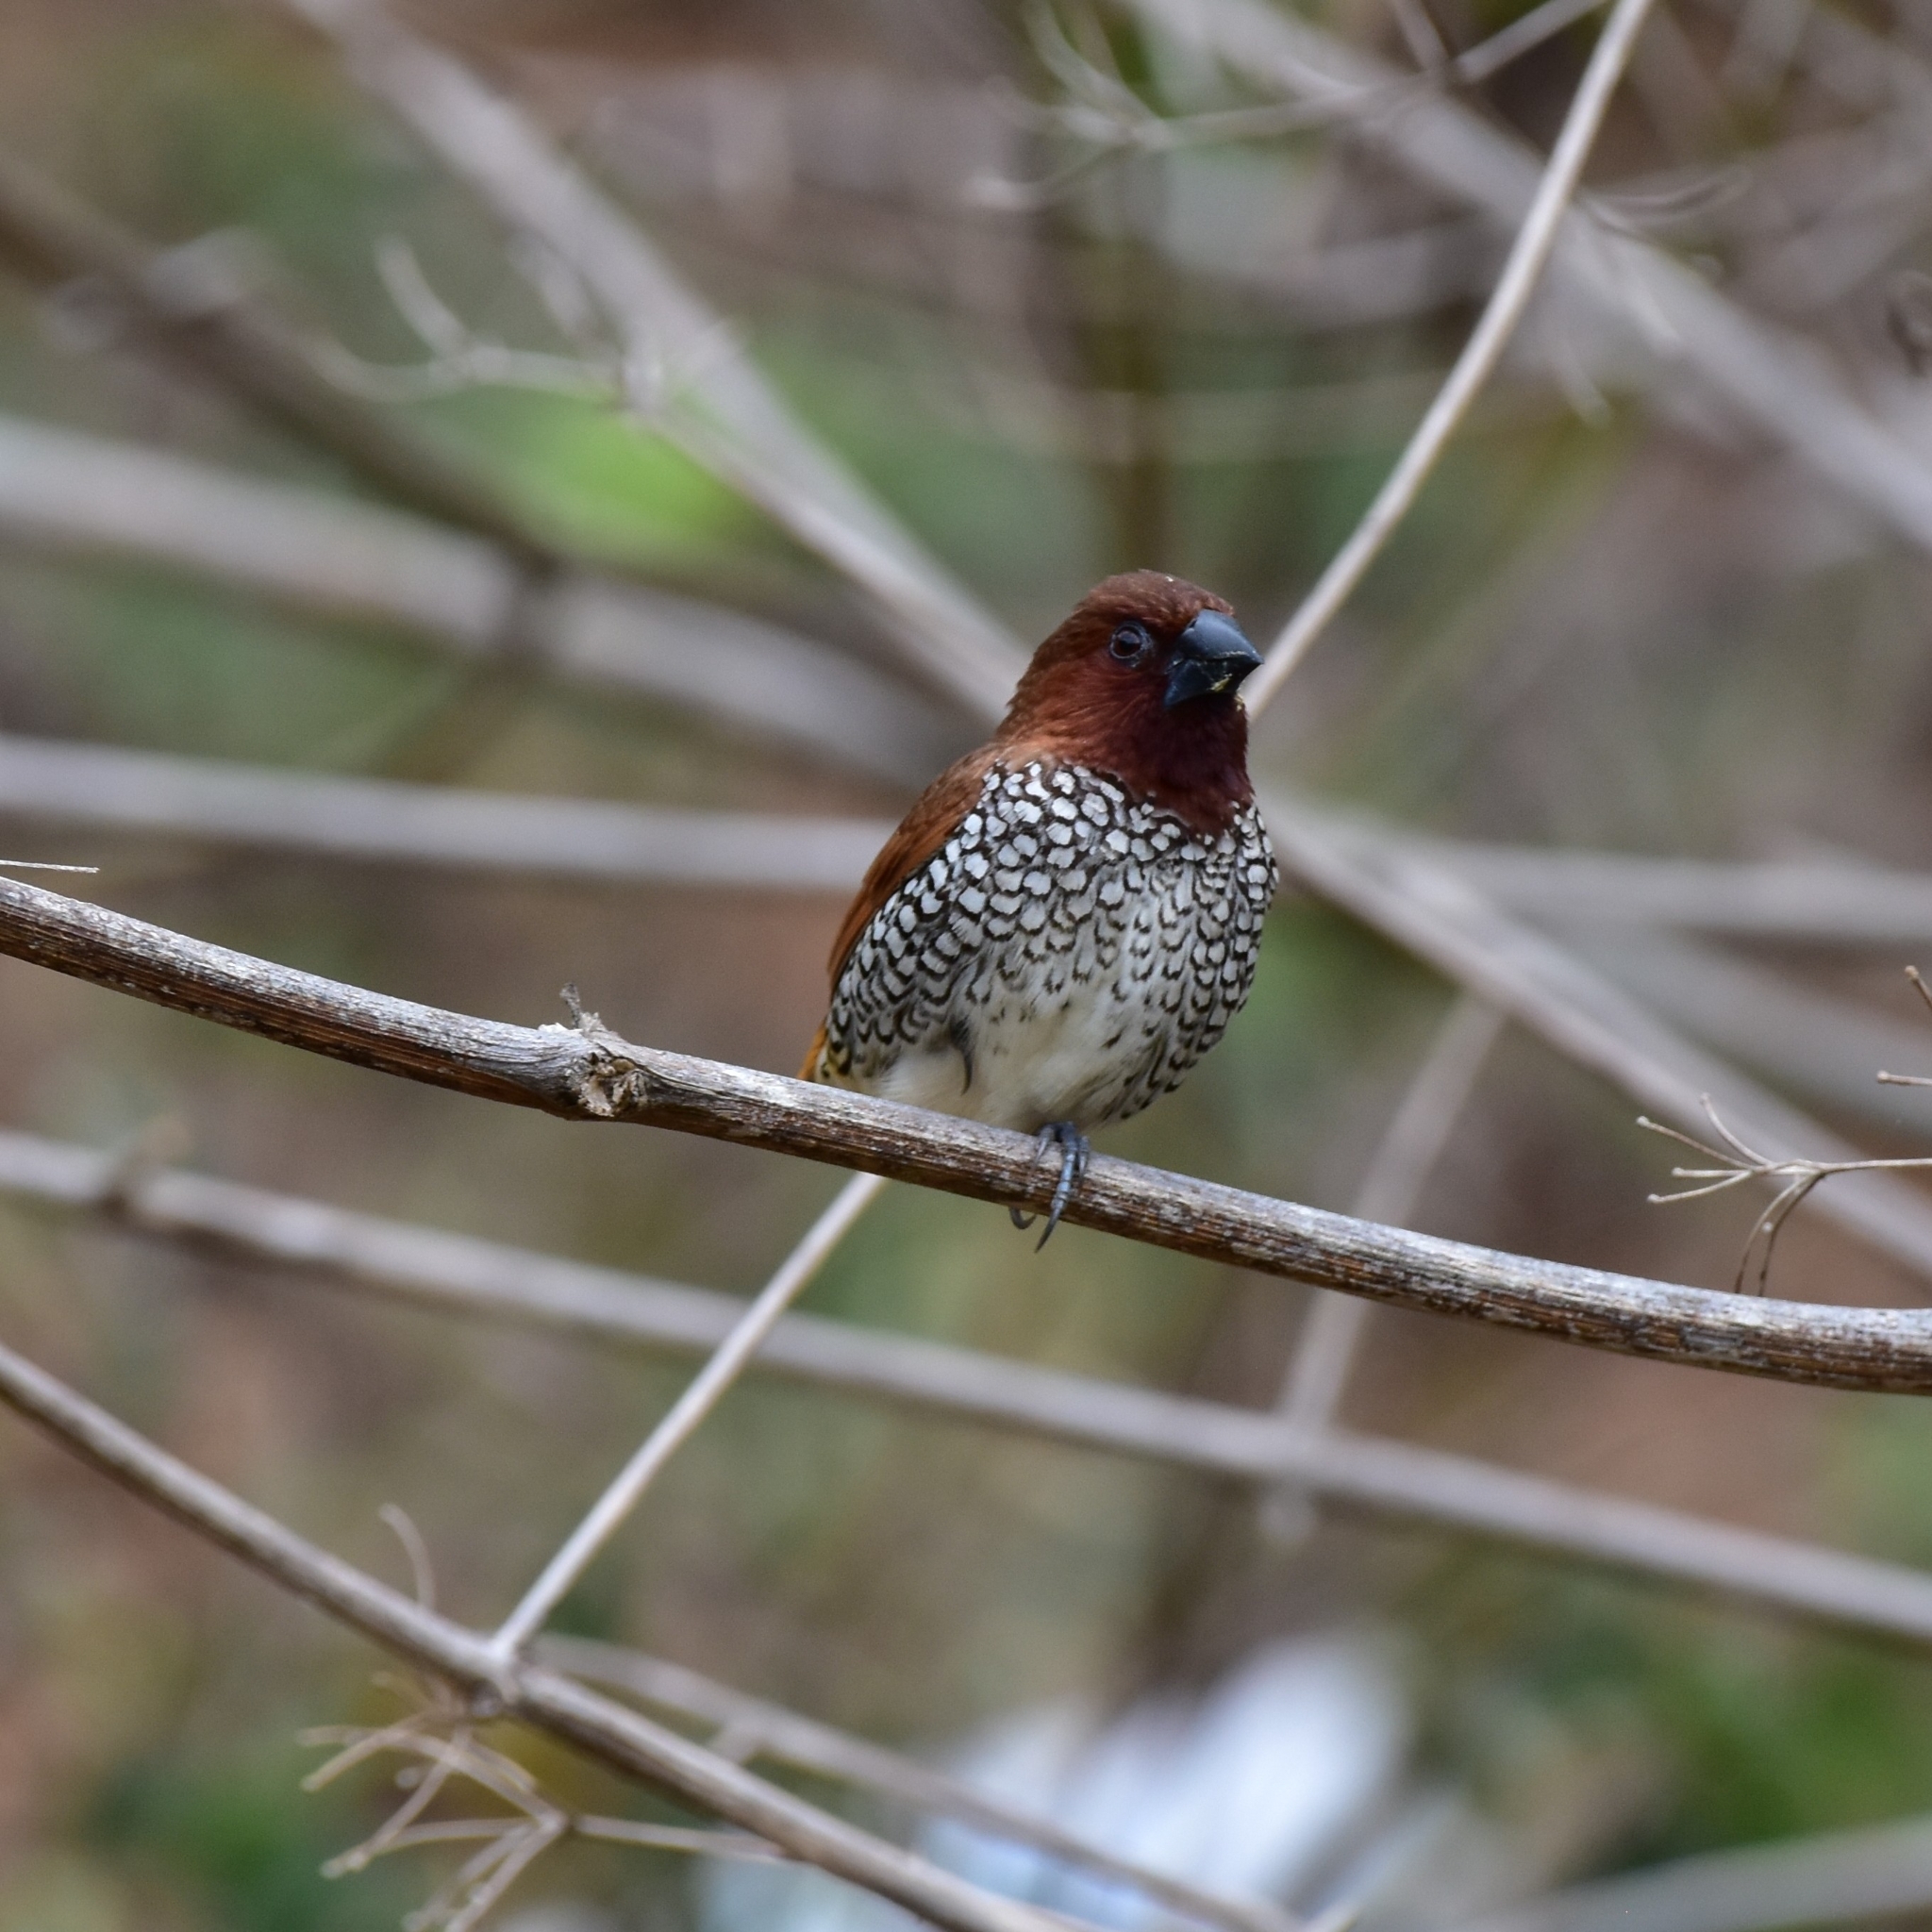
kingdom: Animalia
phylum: Chordata
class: Aves
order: Passeriformes
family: Estrildidae
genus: Lonchura
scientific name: Lonchura punctulata
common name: Scaly-breasted munia
